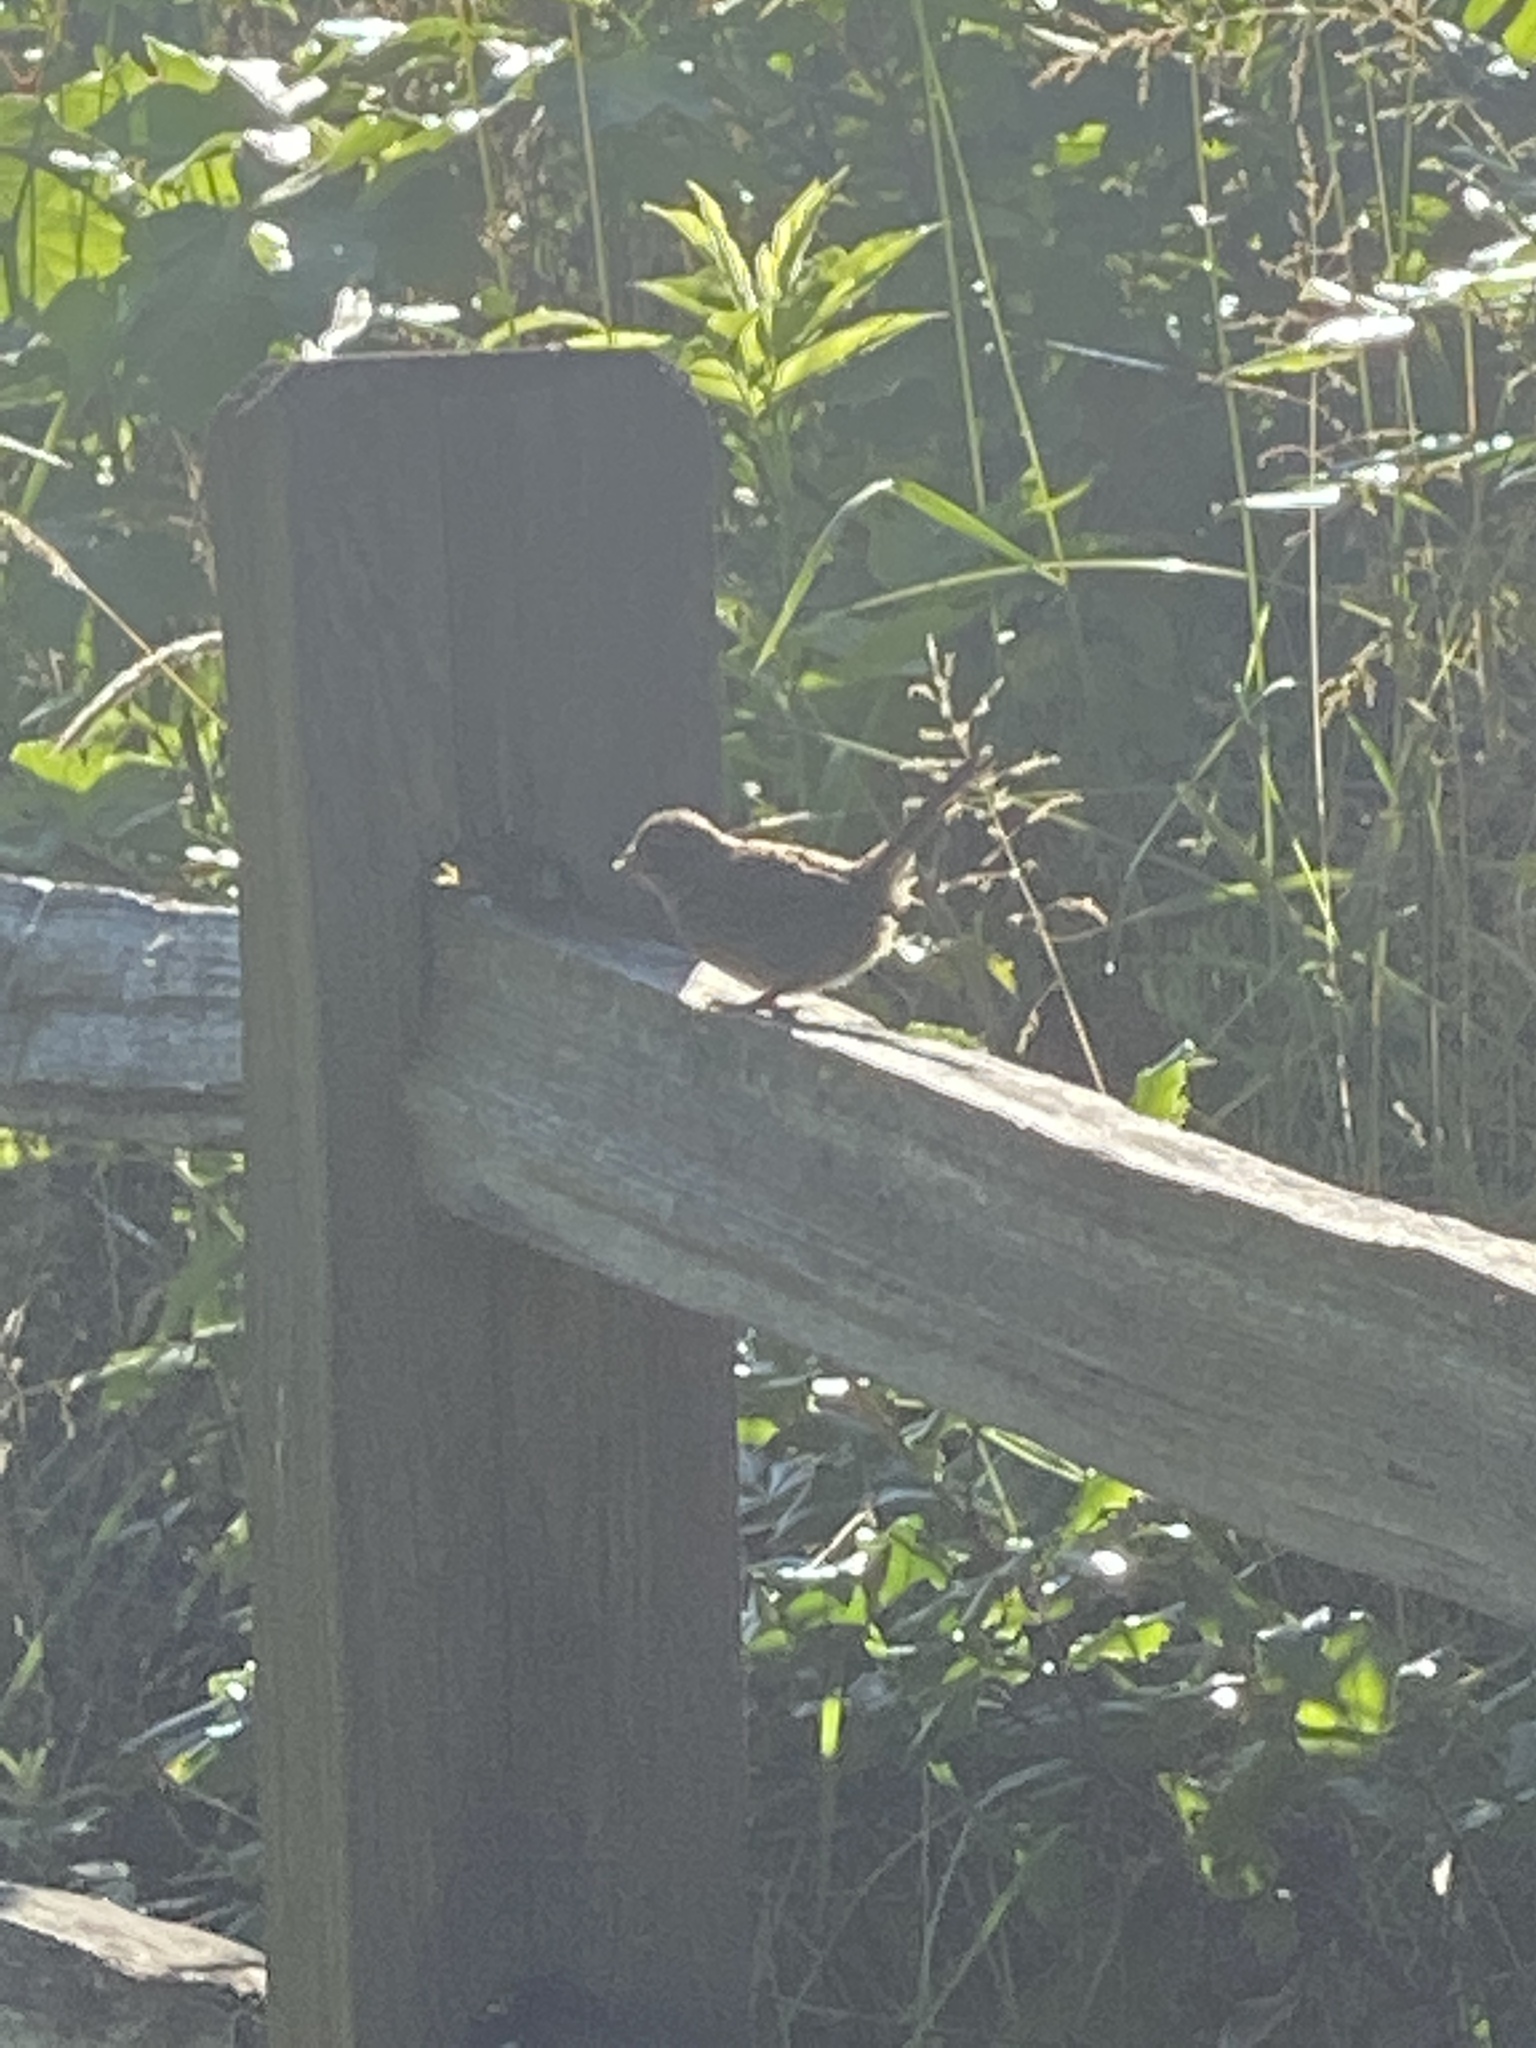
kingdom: Animalia
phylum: Chordata
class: Aves
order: Passeriformes
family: Passerellidae
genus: Melospiza
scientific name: Melospiza melodia
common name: Song sparrow
